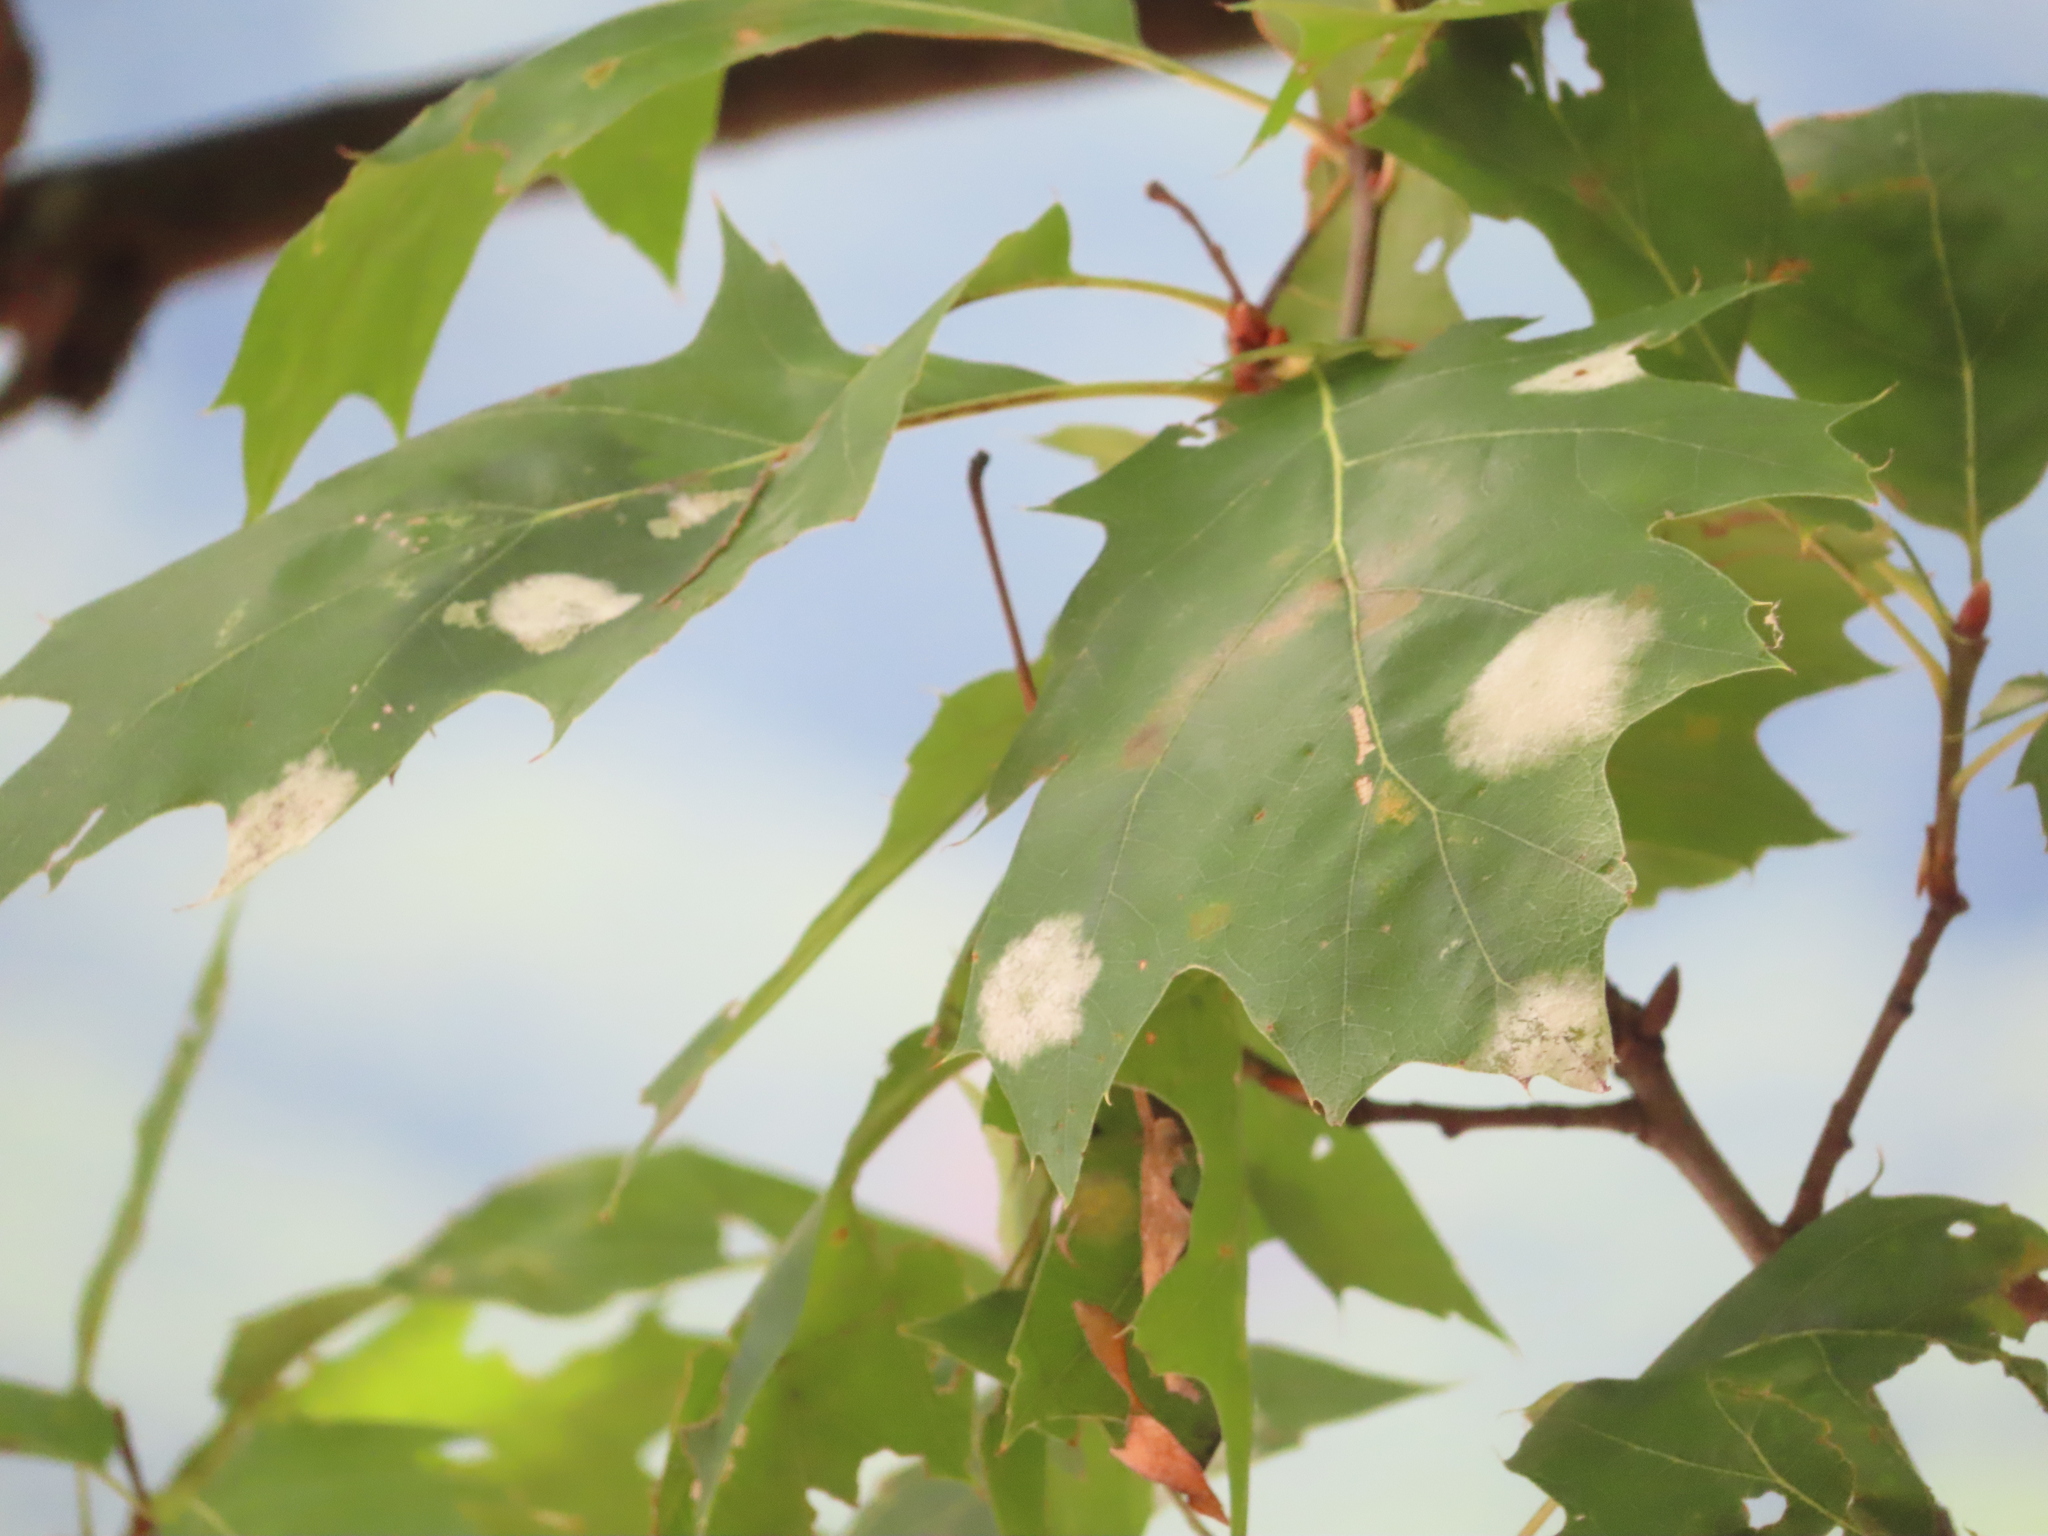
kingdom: Fungi
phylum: Ascomycota
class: Leotiomycetes
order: Helotiales
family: Erysiphaceae
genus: Erysiphe
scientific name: Erysiphe alphitoides
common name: Oak mildew
